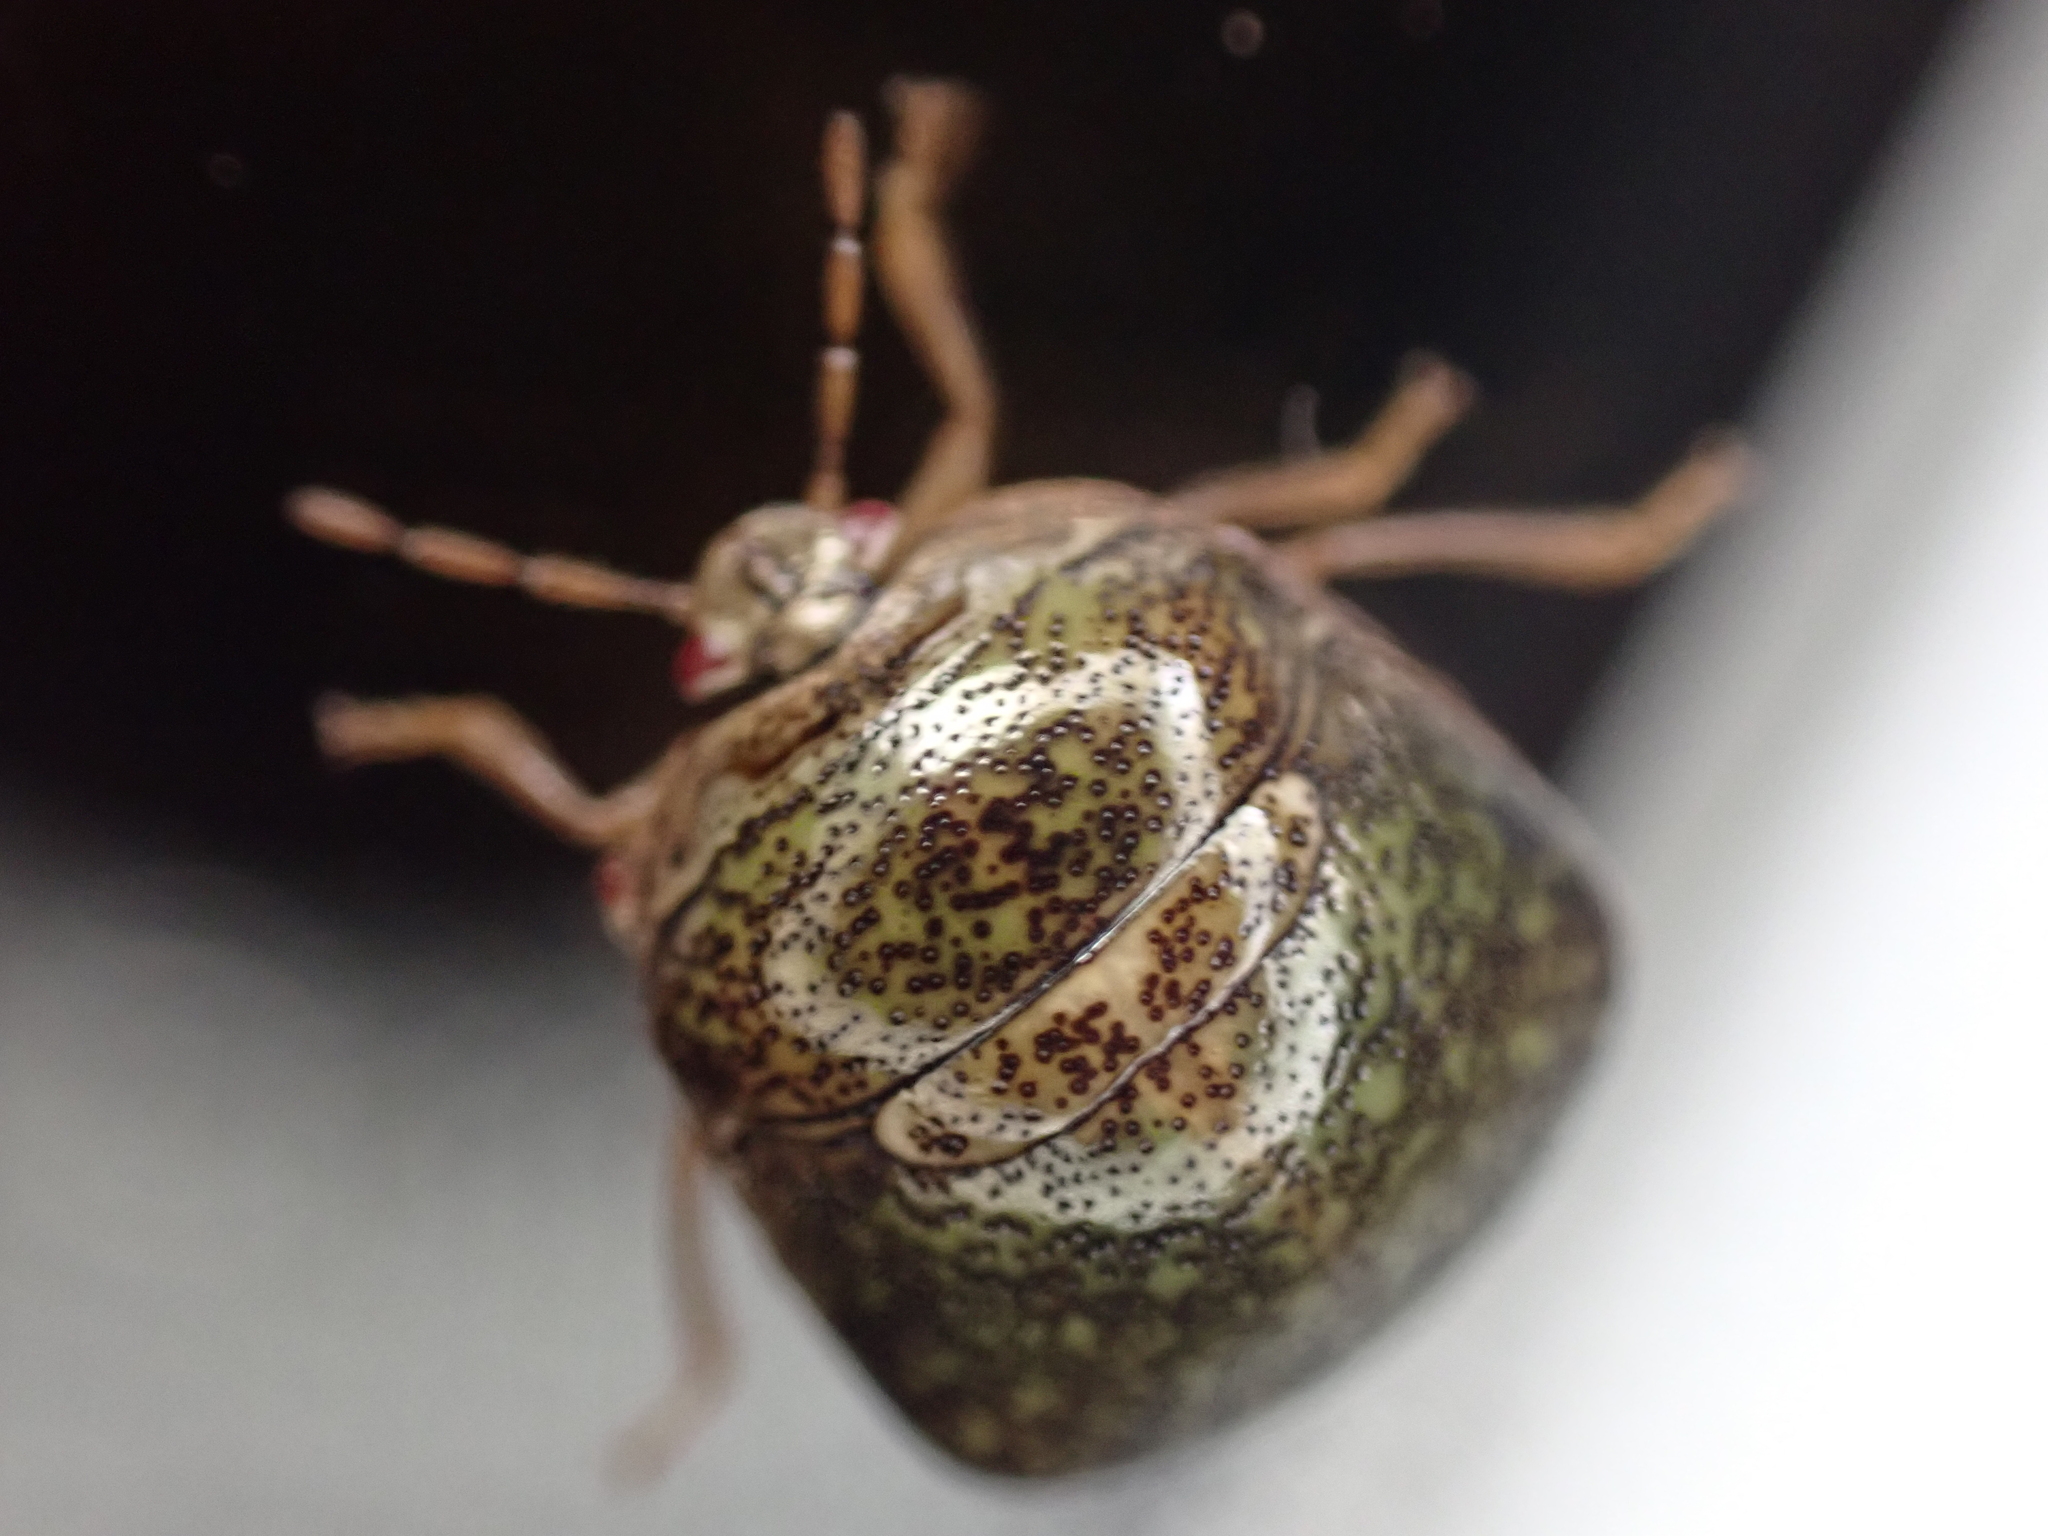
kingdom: Animalia
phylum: Arthropoda
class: Insecta
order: Hemiptera
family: Plataspidae
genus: Megacopta
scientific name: Megacopta cribraria
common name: Bean plataspid
